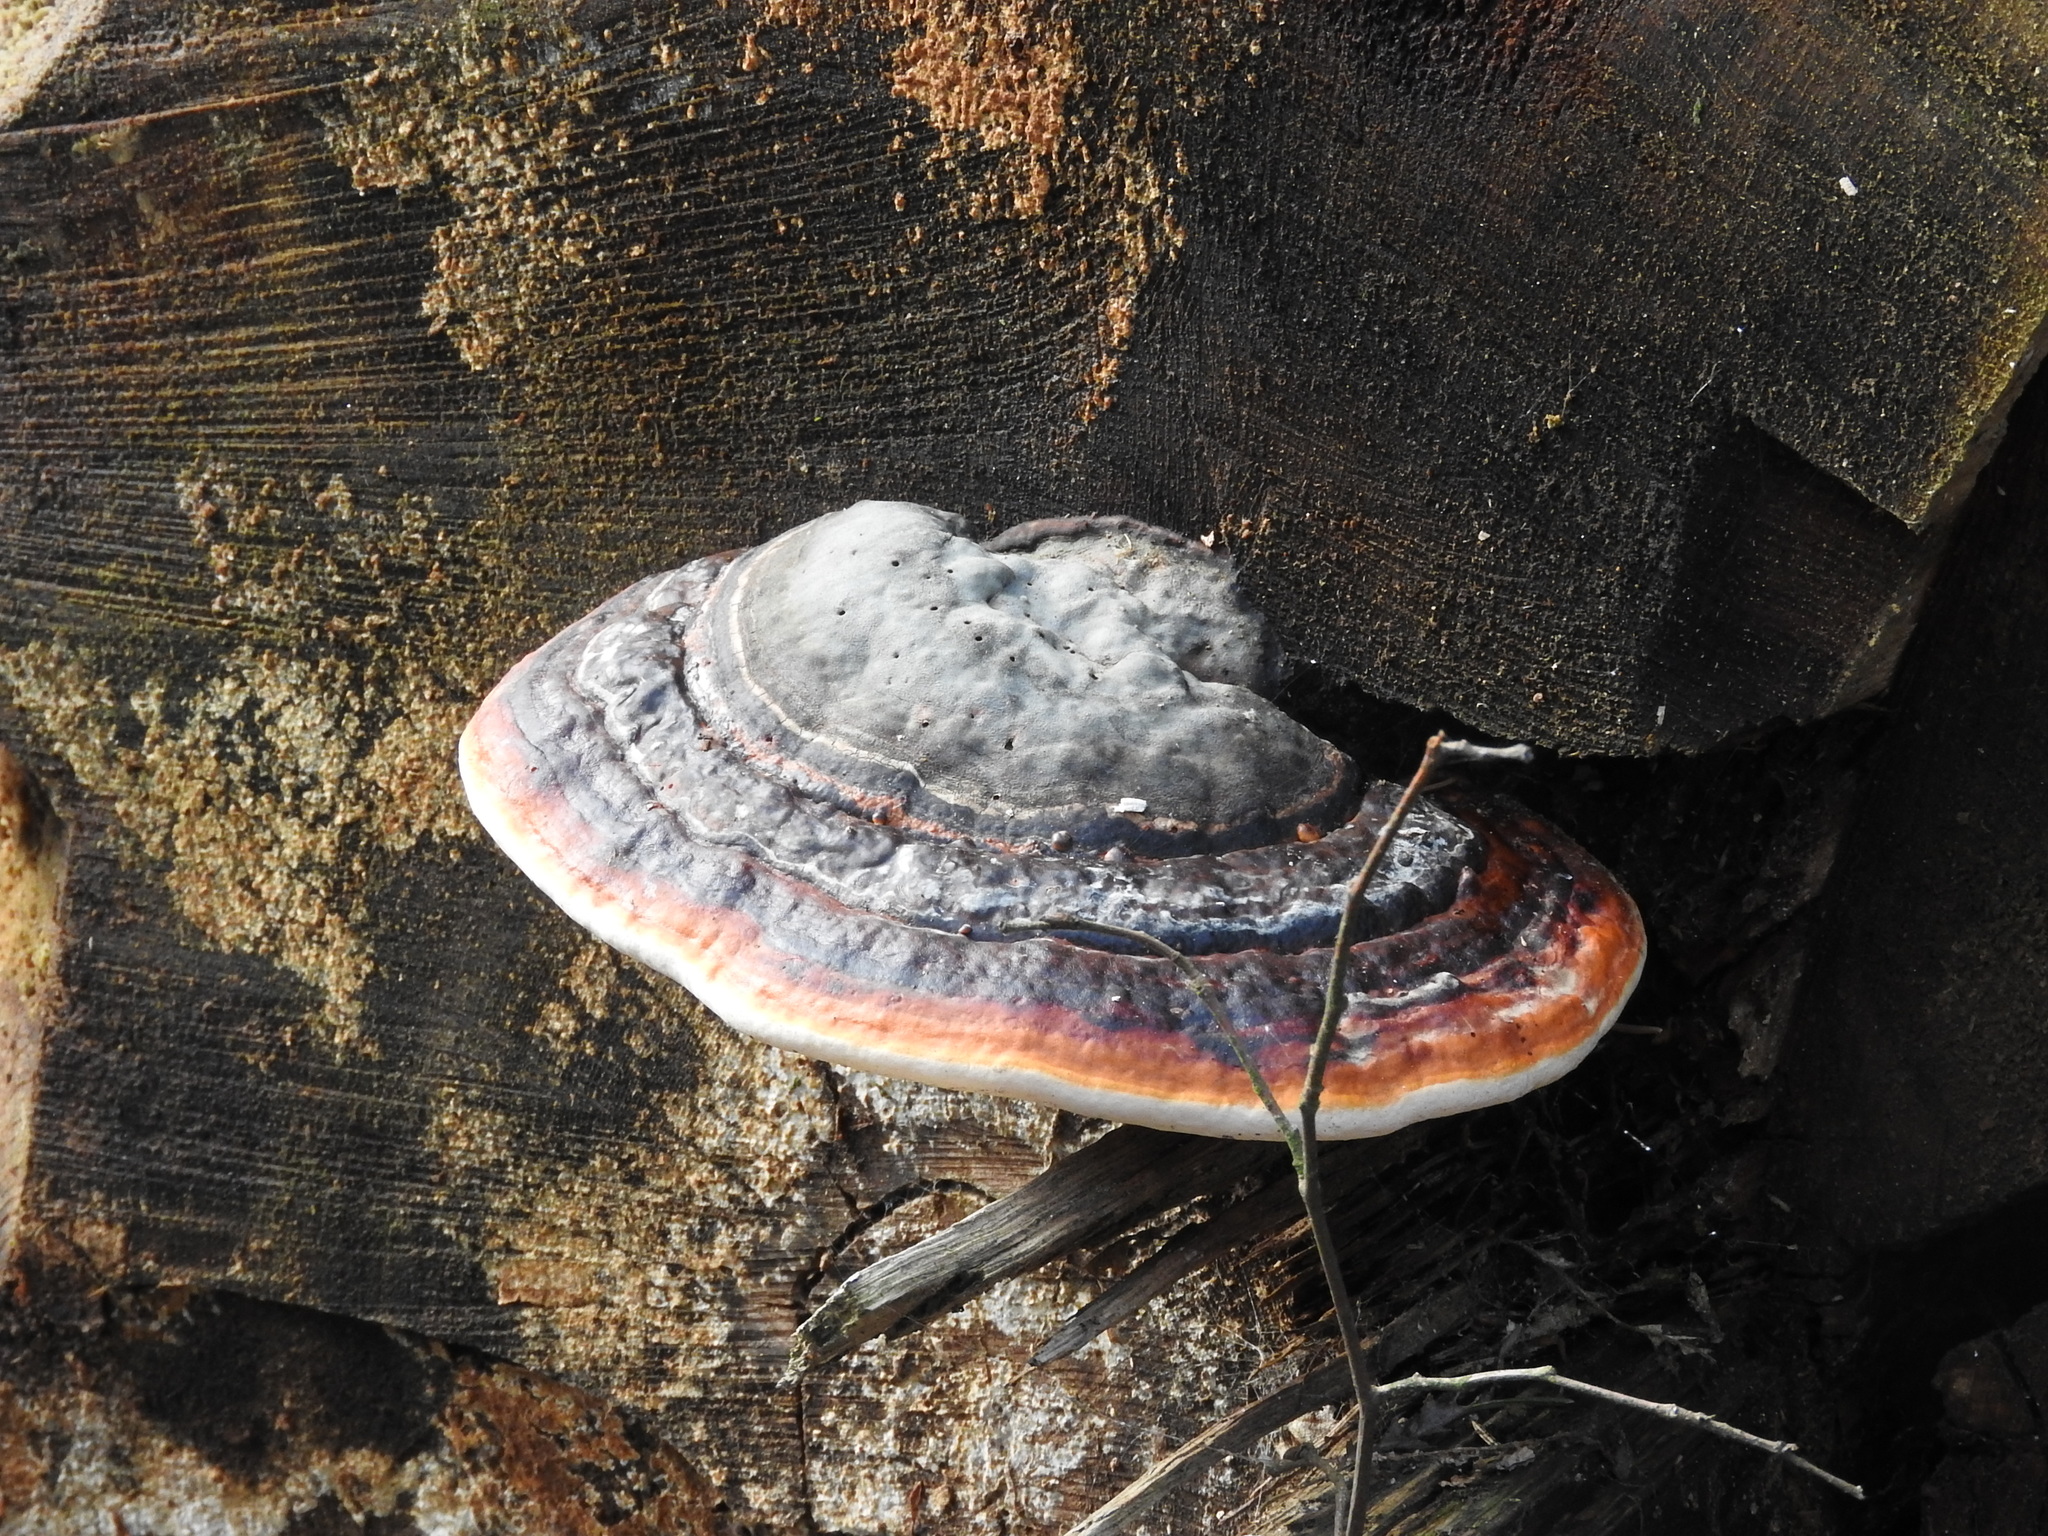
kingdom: Fungi
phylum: Basidiomycota
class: Agaricomycetes
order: Polyporales
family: Fomitopsidaceae
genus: Fomitopsis
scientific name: Fomitopsis pinicola
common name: Red-belted bracket
